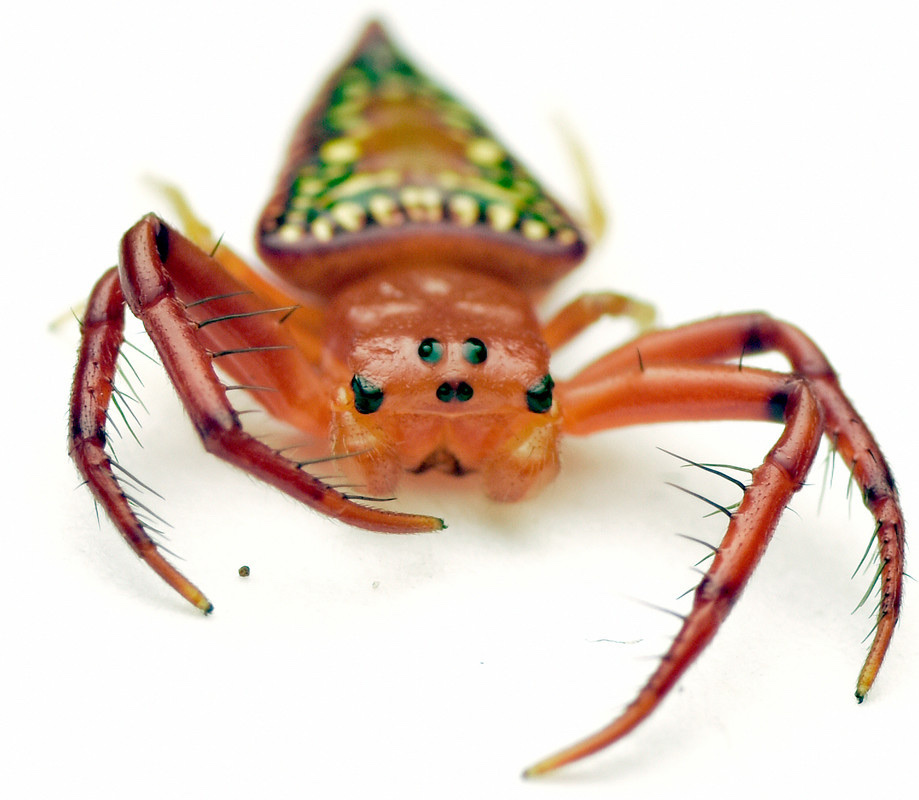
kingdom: Animalia
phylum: Arthropoda
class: Arachnida
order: Araneae
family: Arkyidae
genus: Arkys
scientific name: Arkys walckenaeri
